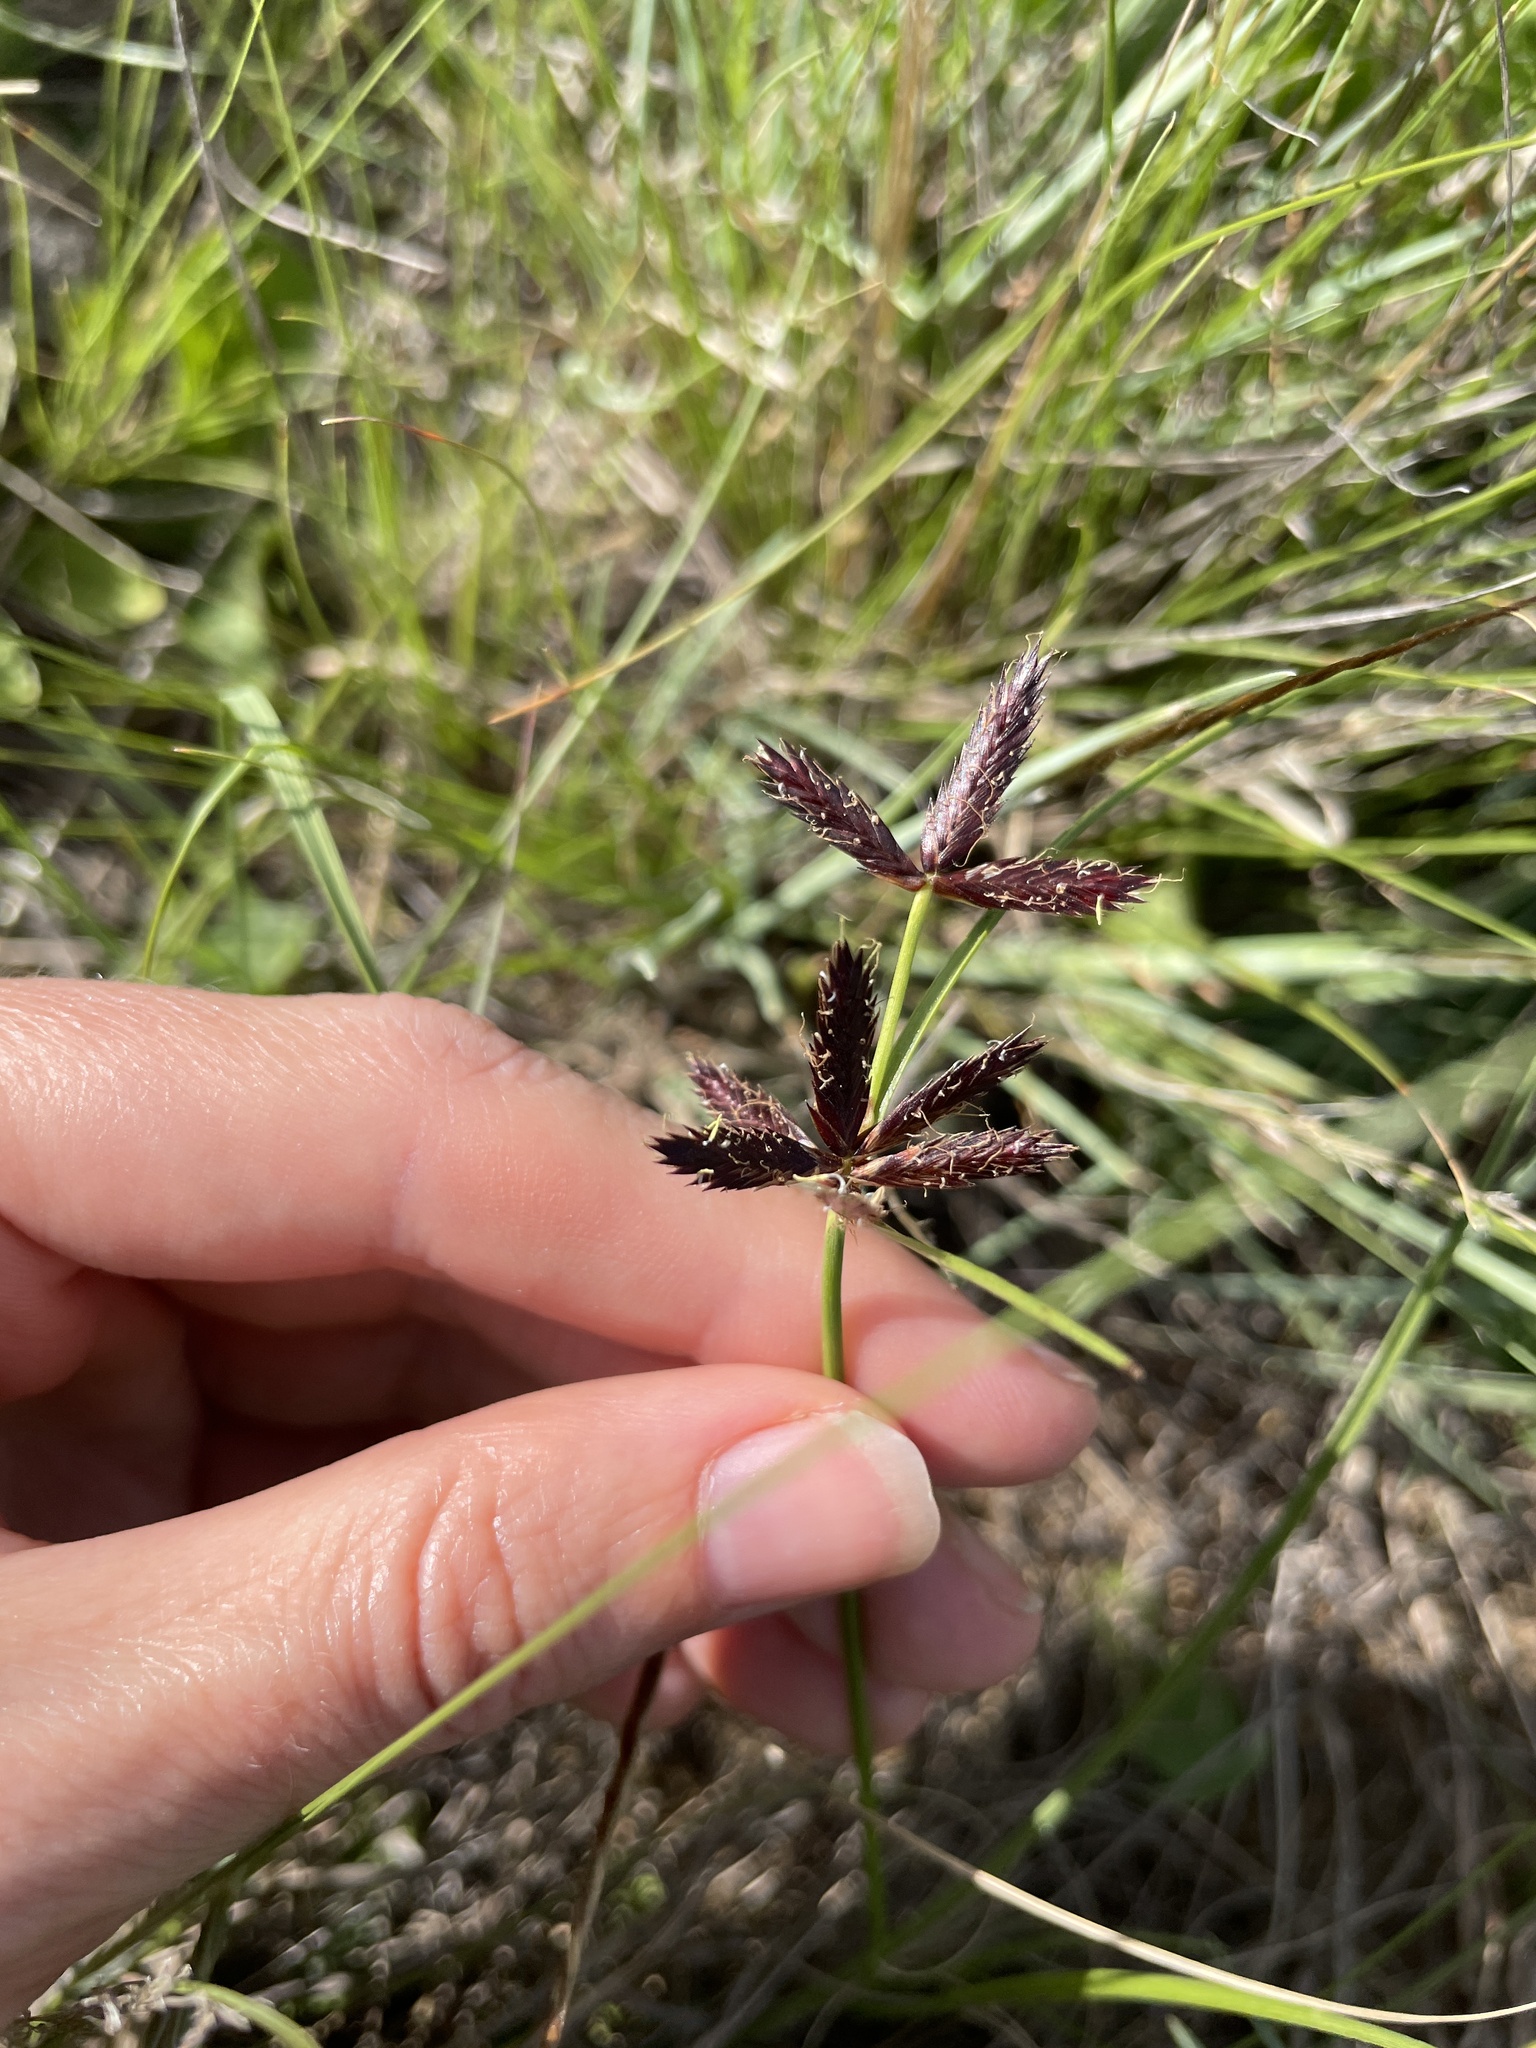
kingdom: Plantae
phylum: Tracheophyta
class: Liliopsida
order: Poales
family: Cyperaceae
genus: Cyperus
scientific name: Cyperus semitrifidus
